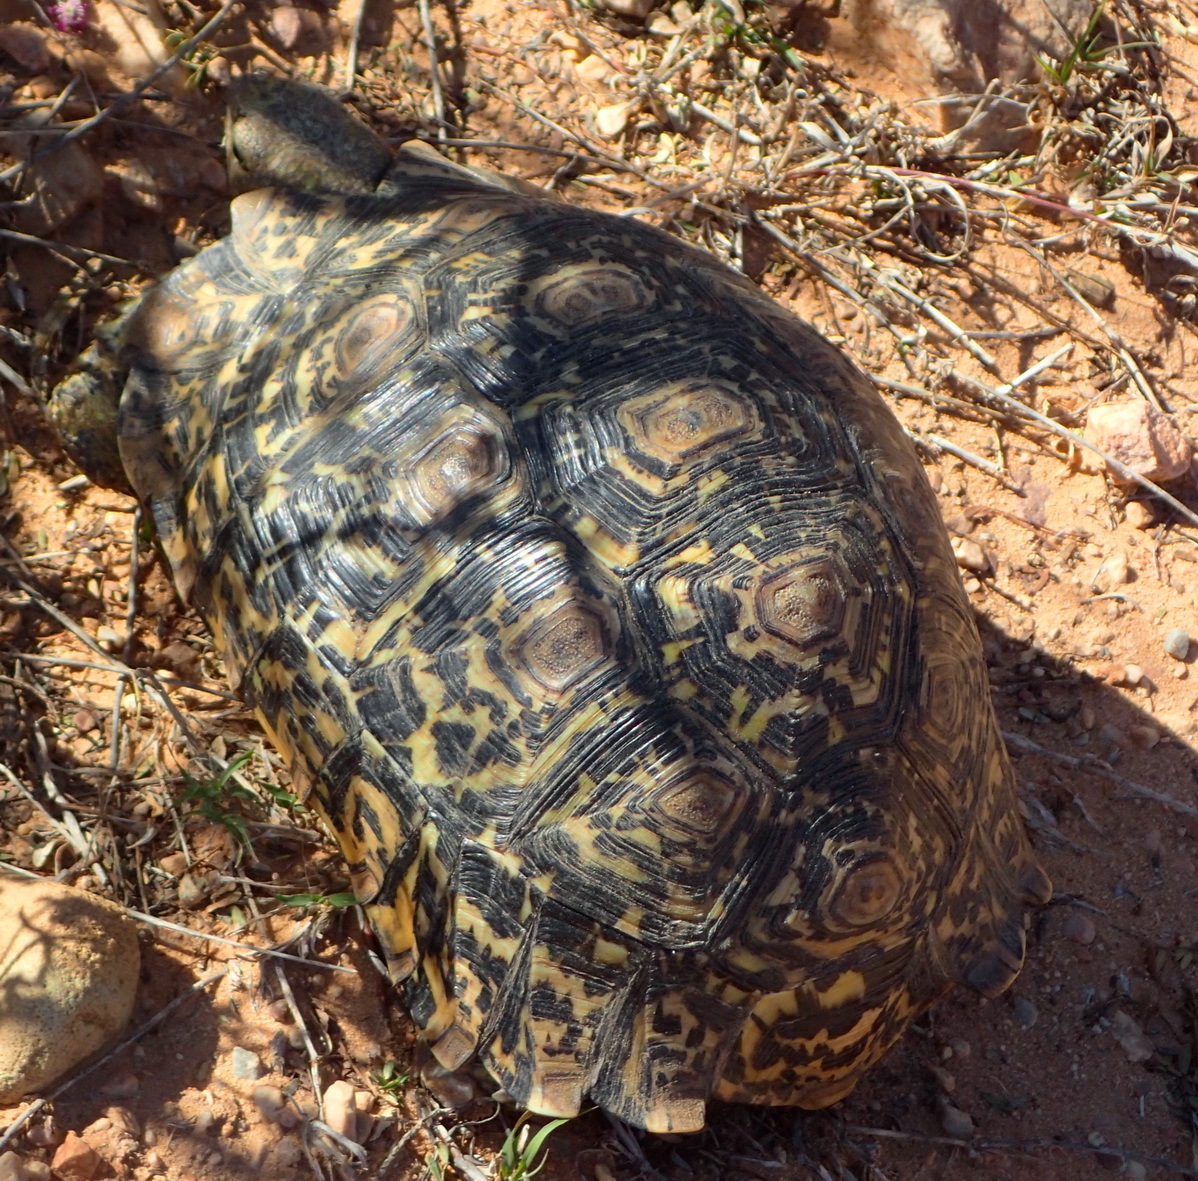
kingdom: Animalia
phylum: Chordata
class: Testudines
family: Testudinidae
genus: Stigmochelys
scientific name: Stigmochelys pardalis
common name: Leopard tortoise
